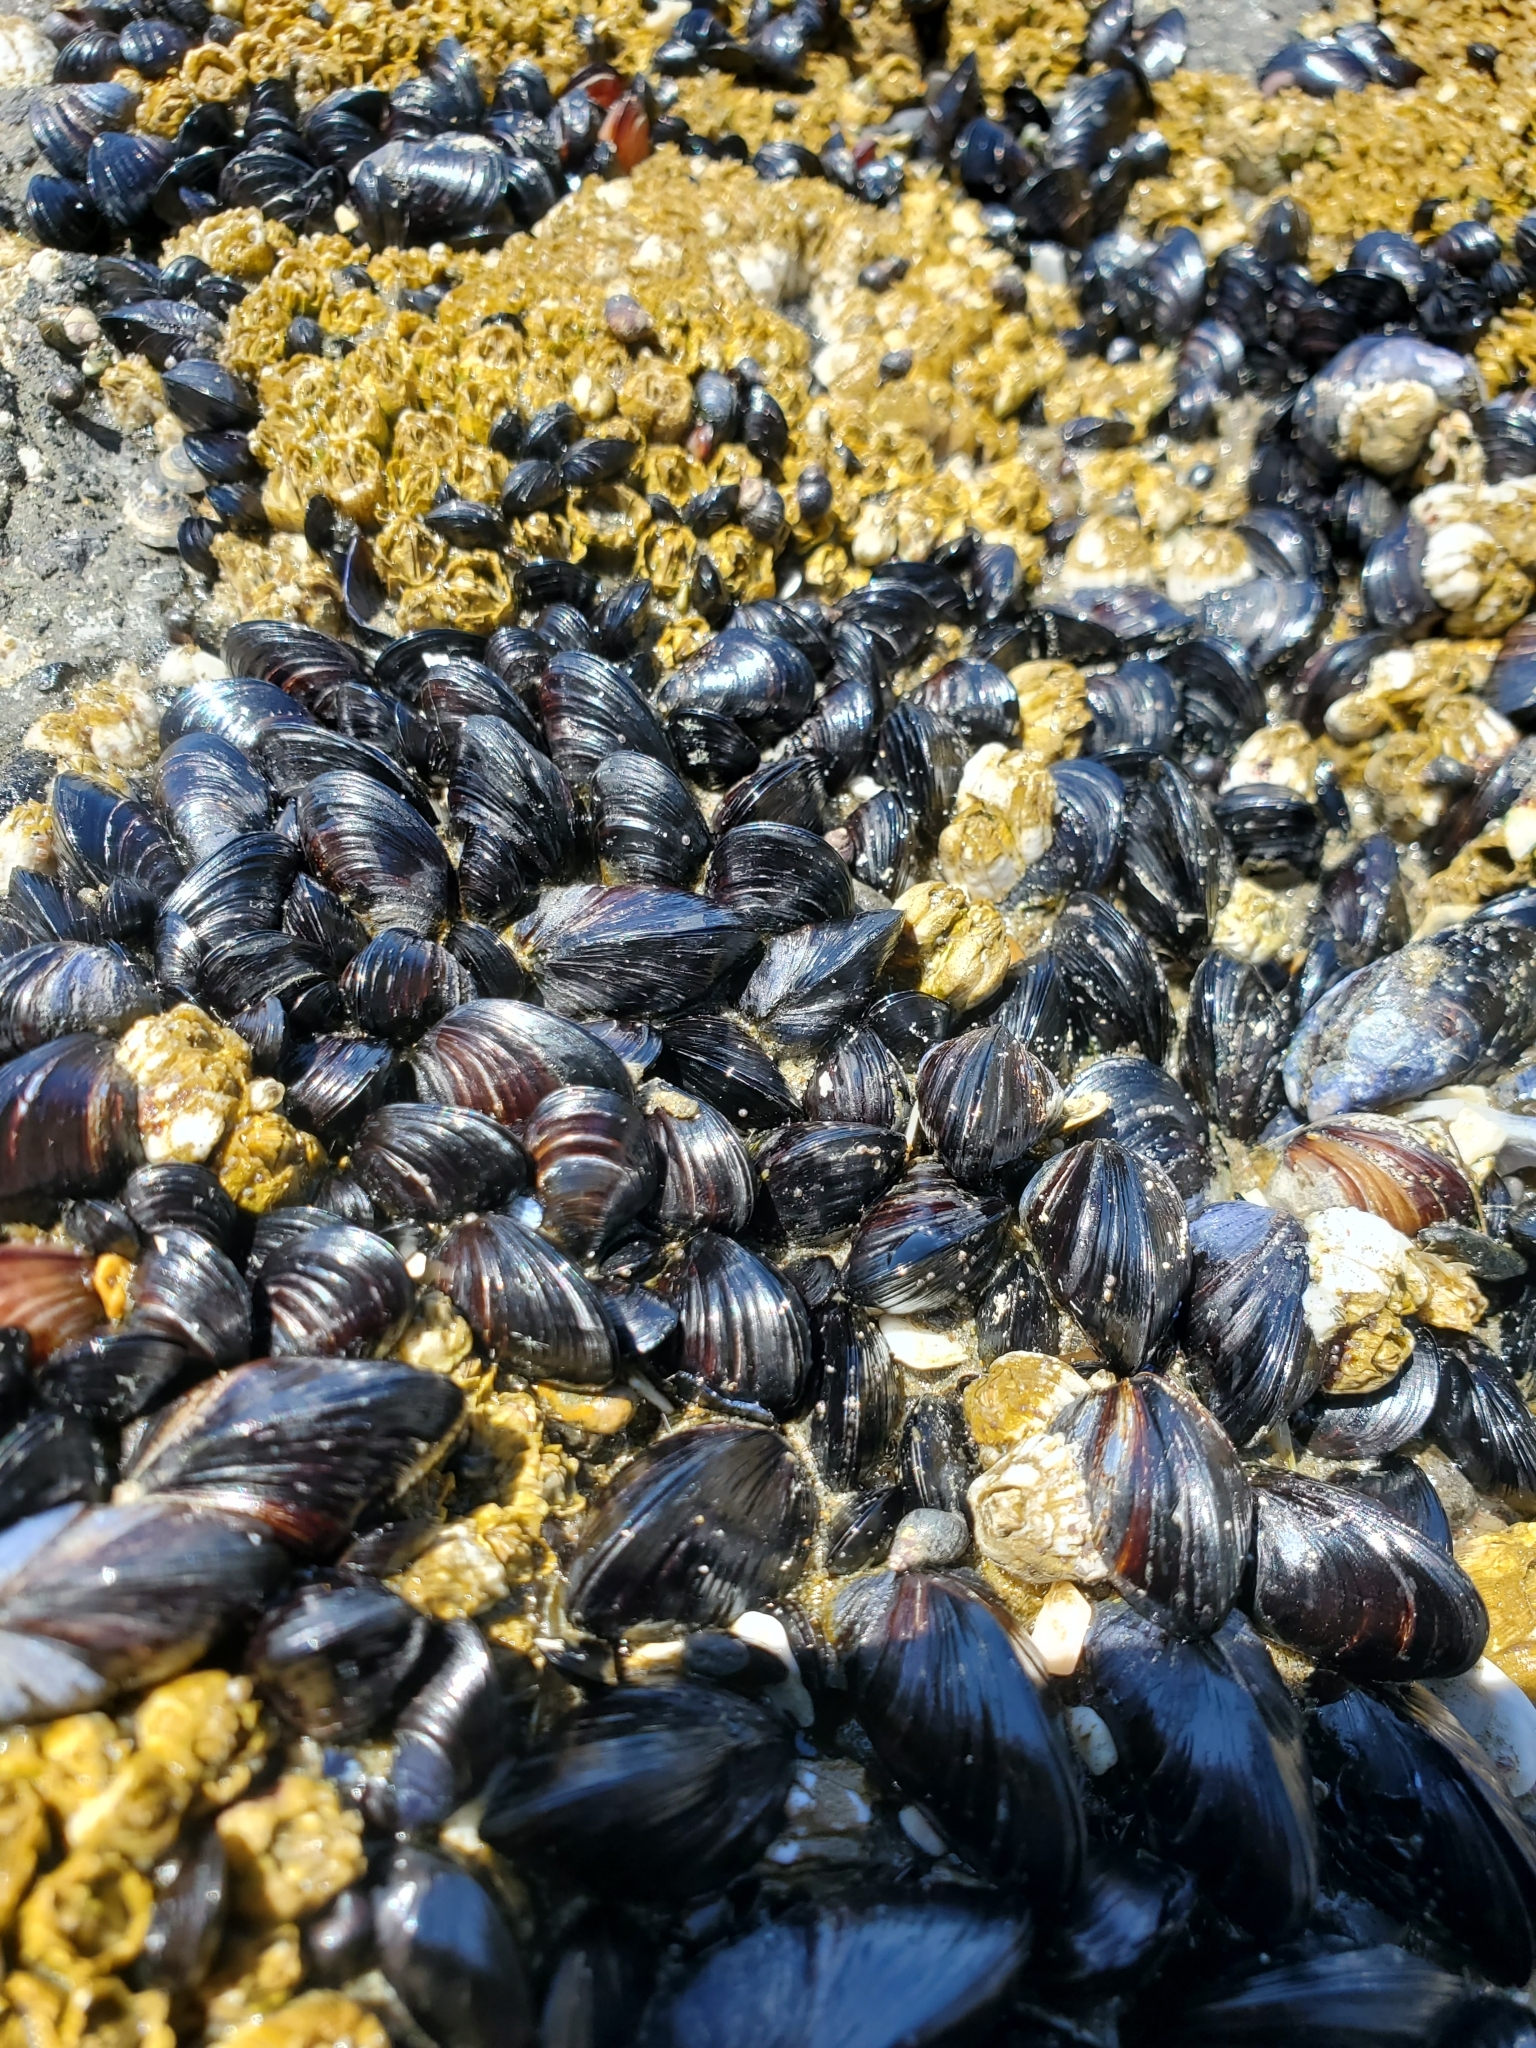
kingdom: Animalia
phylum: Mollusca
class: Bivalvia
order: Mytilida
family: Mytilidae
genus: Mytilus
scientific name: Mytilus trossulus
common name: Northern blue mussel
